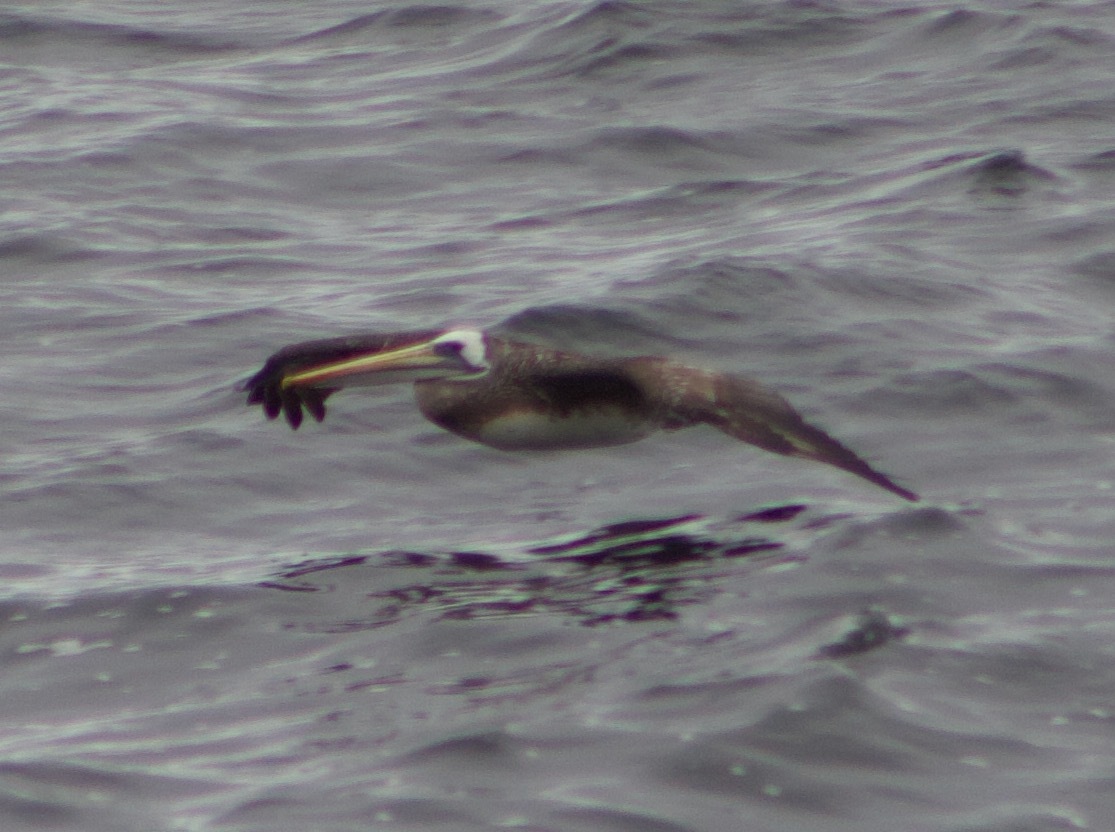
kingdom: Animalia
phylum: Chordata
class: Aves
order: Pelecaniformes
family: Pelecanidae
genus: Pelecanus
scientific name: Pelecanus thagus
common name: Peruvian pelican
